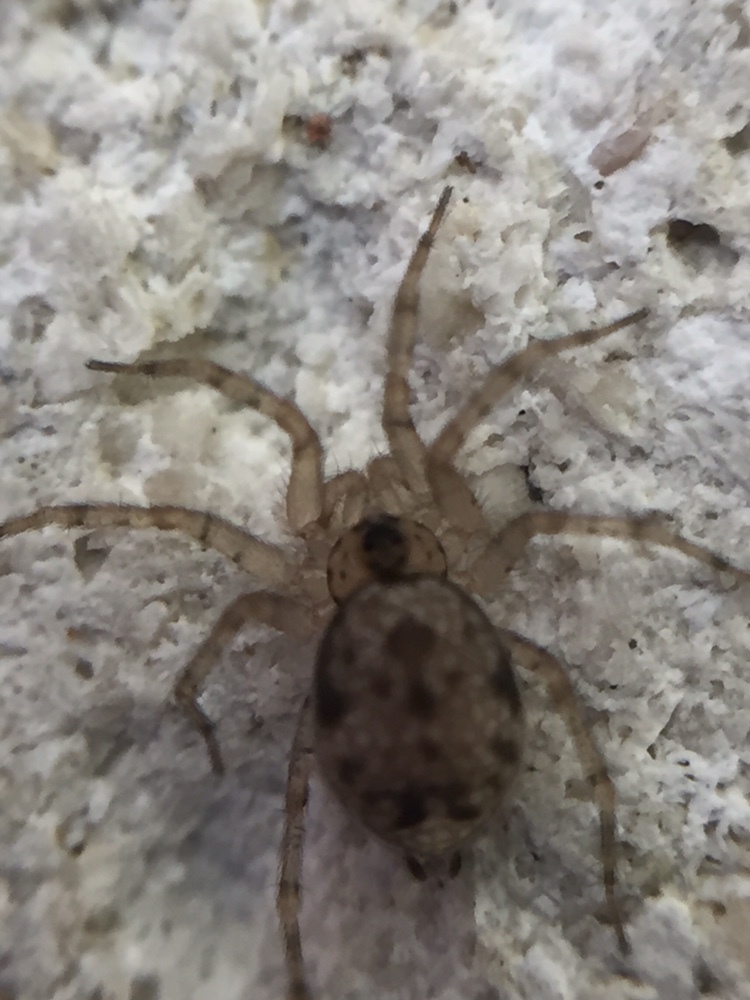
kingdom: Animalia
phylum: Arthropoda
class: Arachnida
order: Araneae
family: Oecobiidae
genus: Oecobius
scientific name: Oecobius navus
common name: Flatmesh weaver
